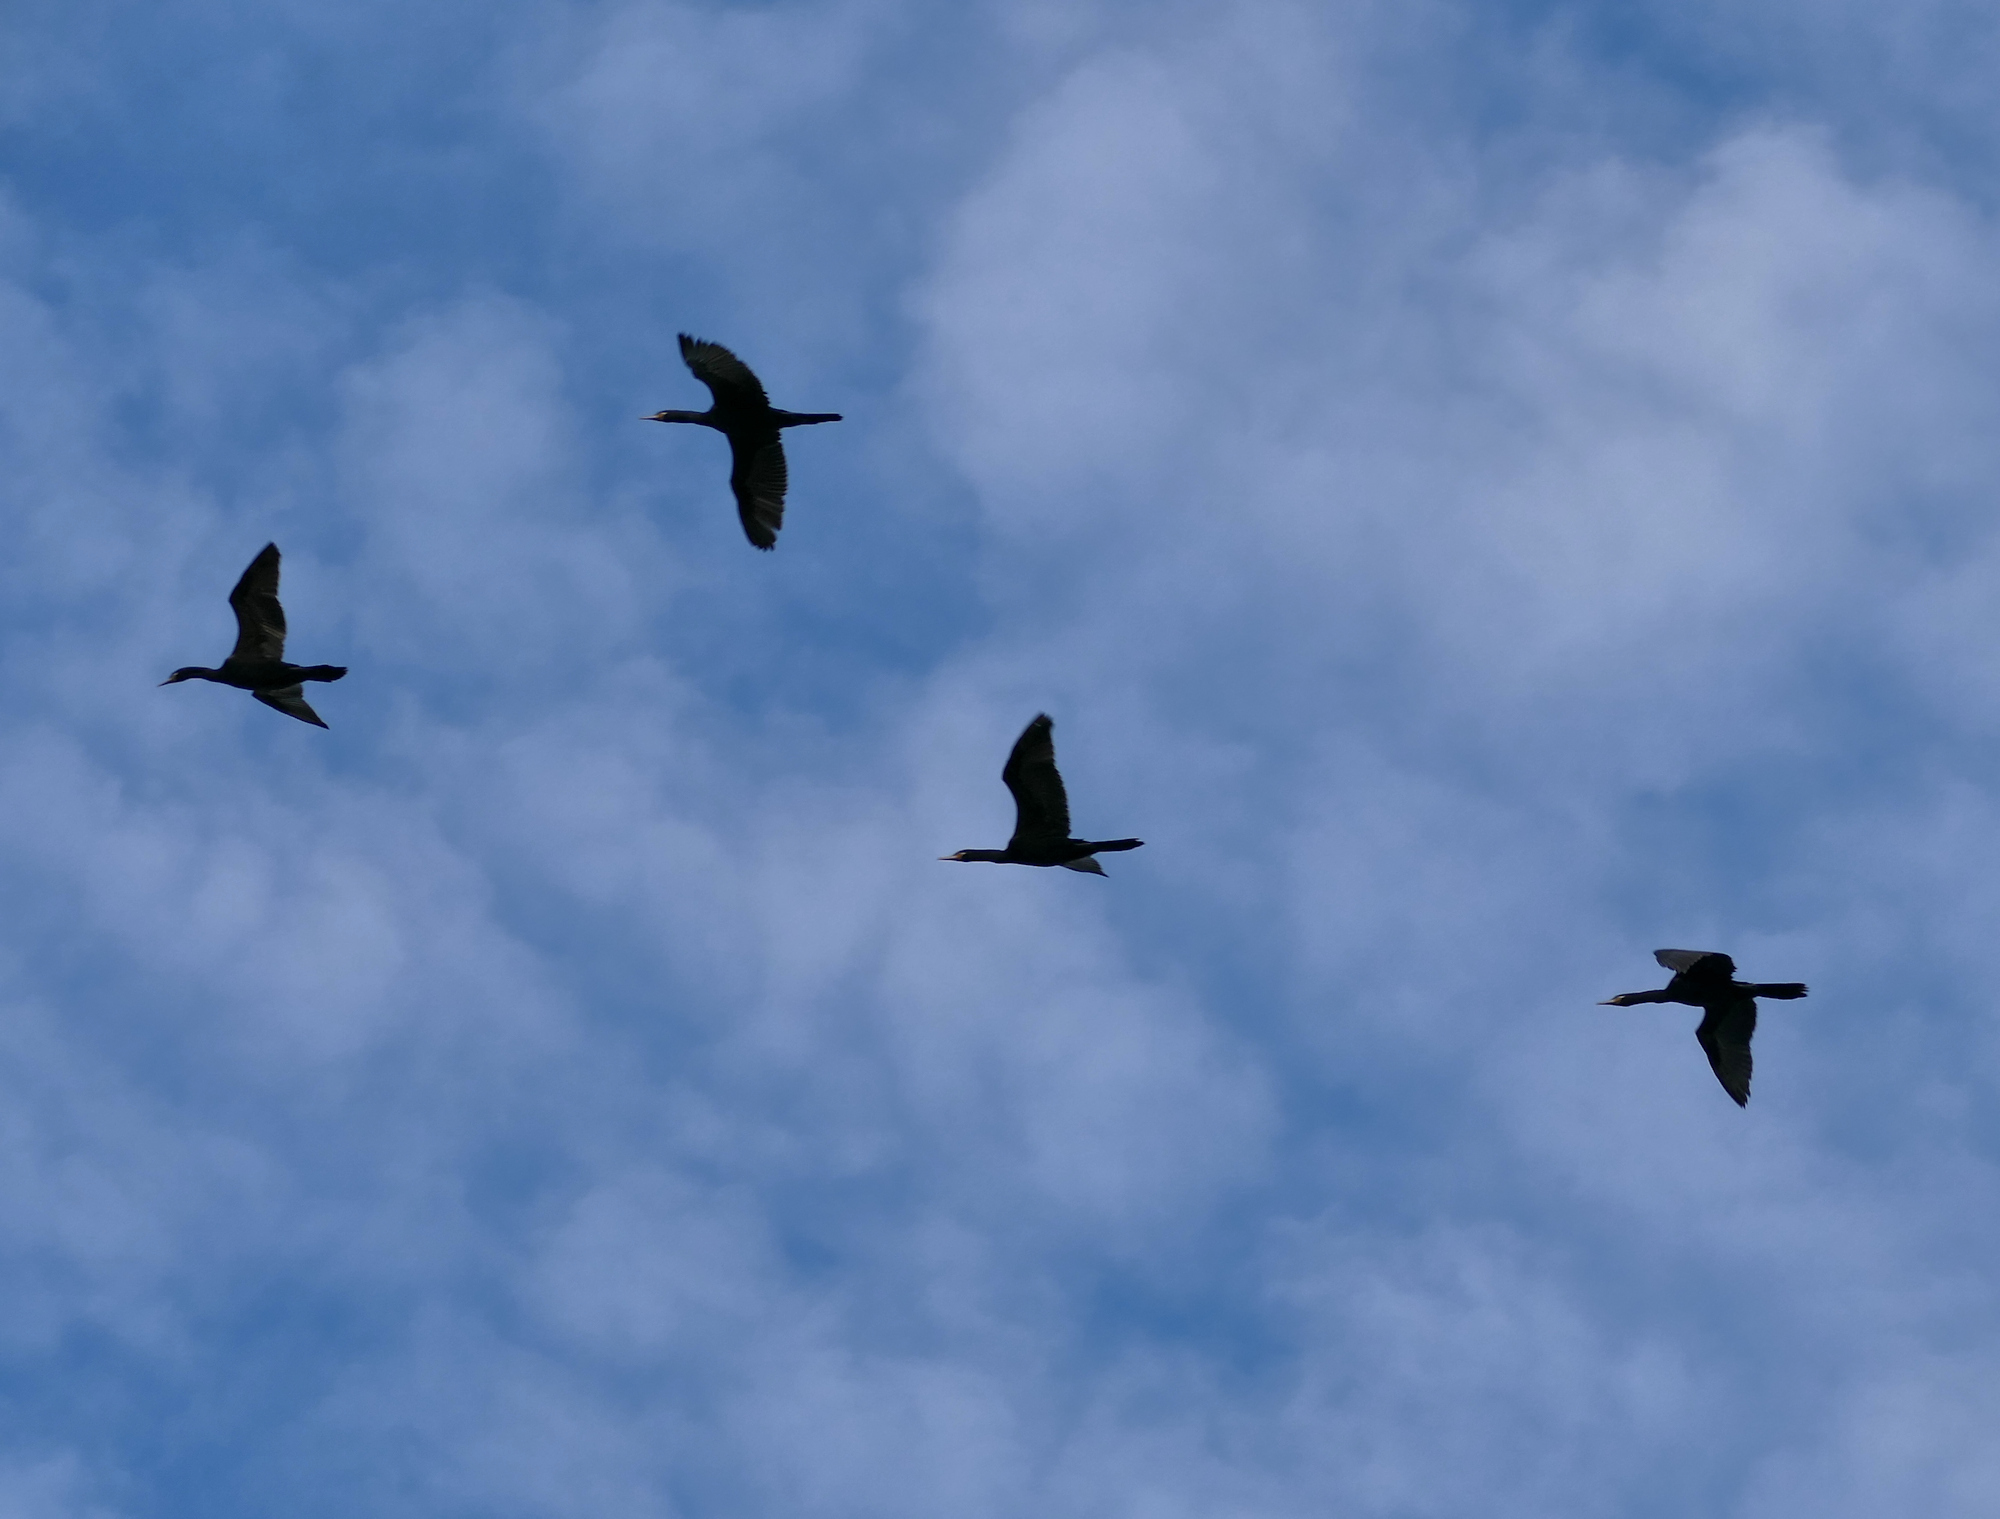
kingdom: Animalia
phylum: Chordata
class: Aves
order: Suliformes
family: Phalacrocoracidae
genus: Phalacrocorax
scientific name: Phalacrocorax brasilianus
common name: Neotropic cormorant
